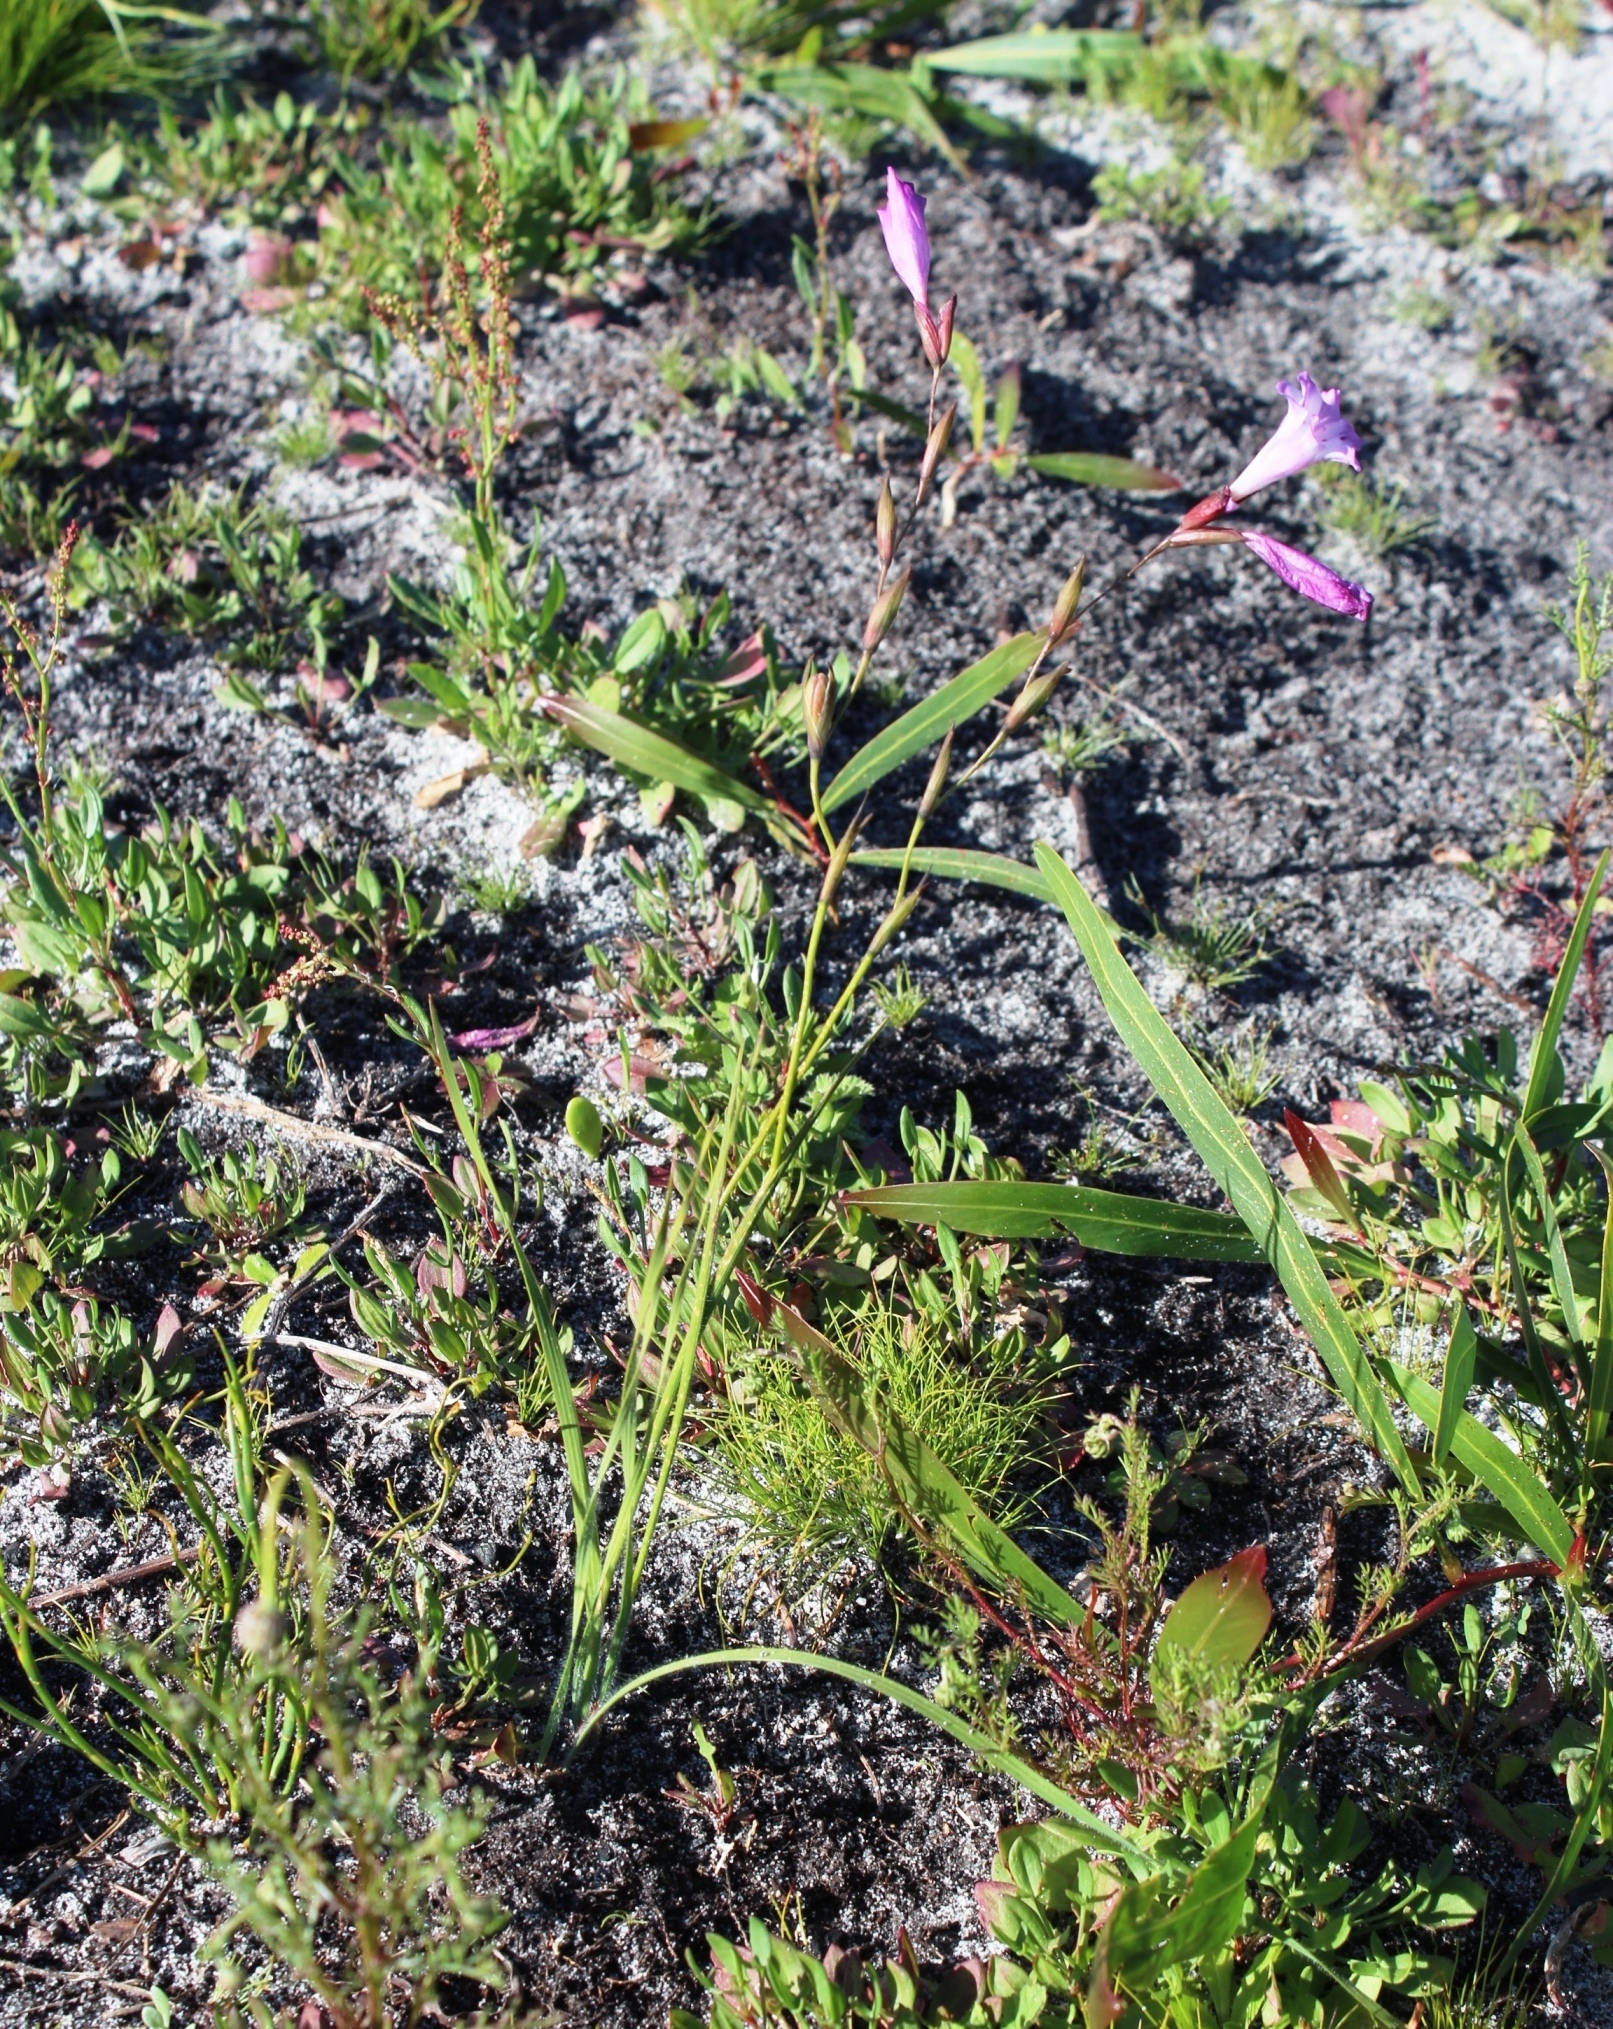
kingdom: Plantae
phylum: Tracheophyta
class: Liliopsida
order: Asparagales
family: Iridaceae
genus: Gladiolus
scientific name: Gladiolus hirsutus
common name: Small pink afrikaner
